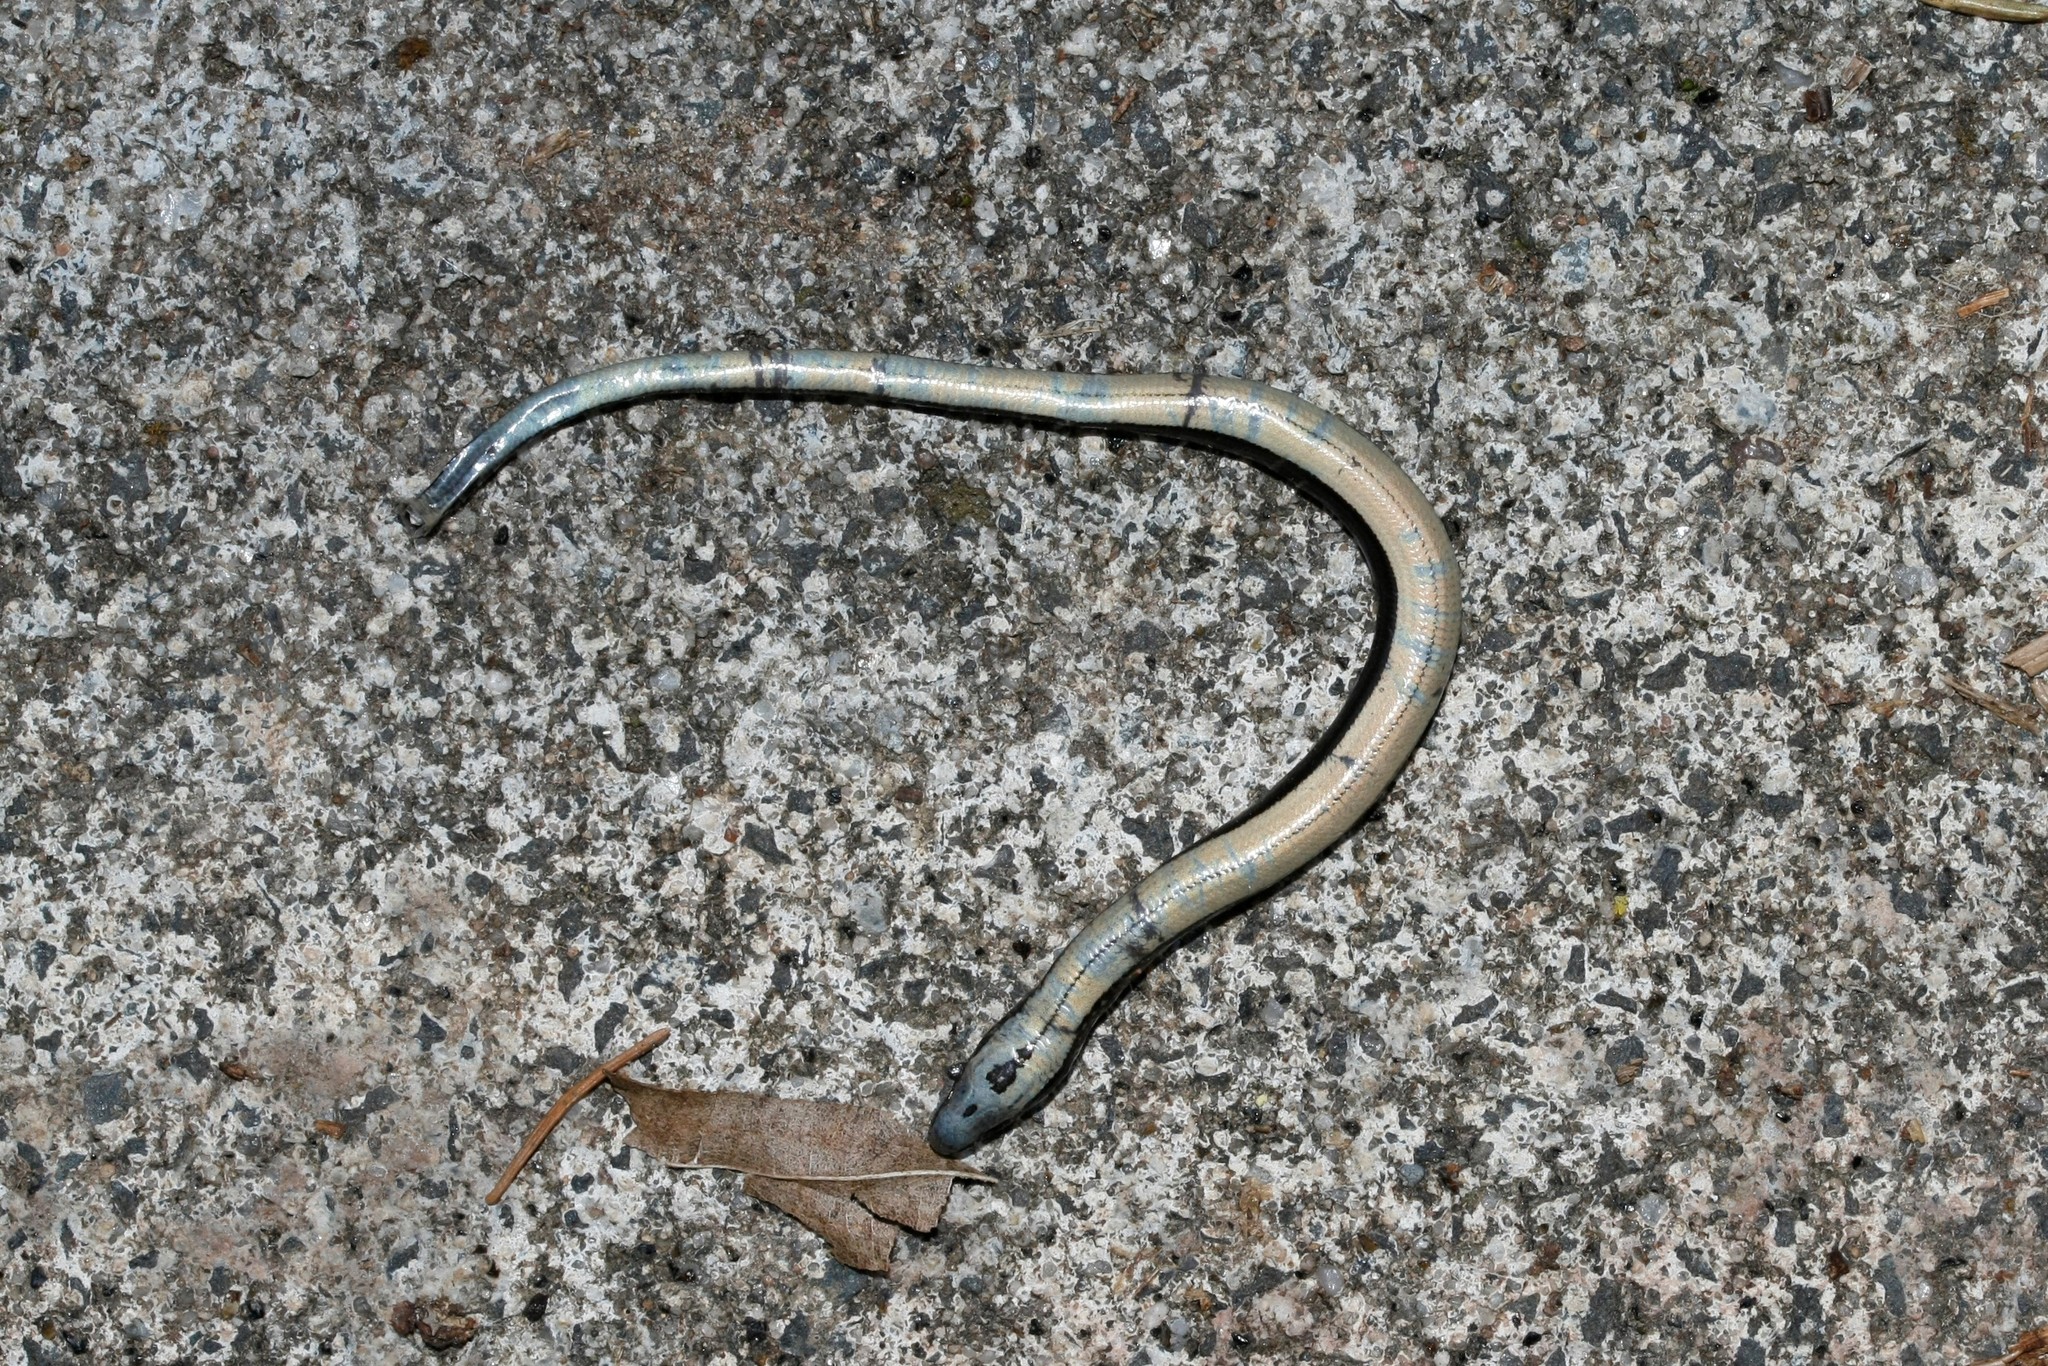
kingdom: Animalia
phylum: Chordata
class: Squamata
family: Anguidae
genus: Anguis
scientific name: Anguis fragilis
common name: Slow worm
